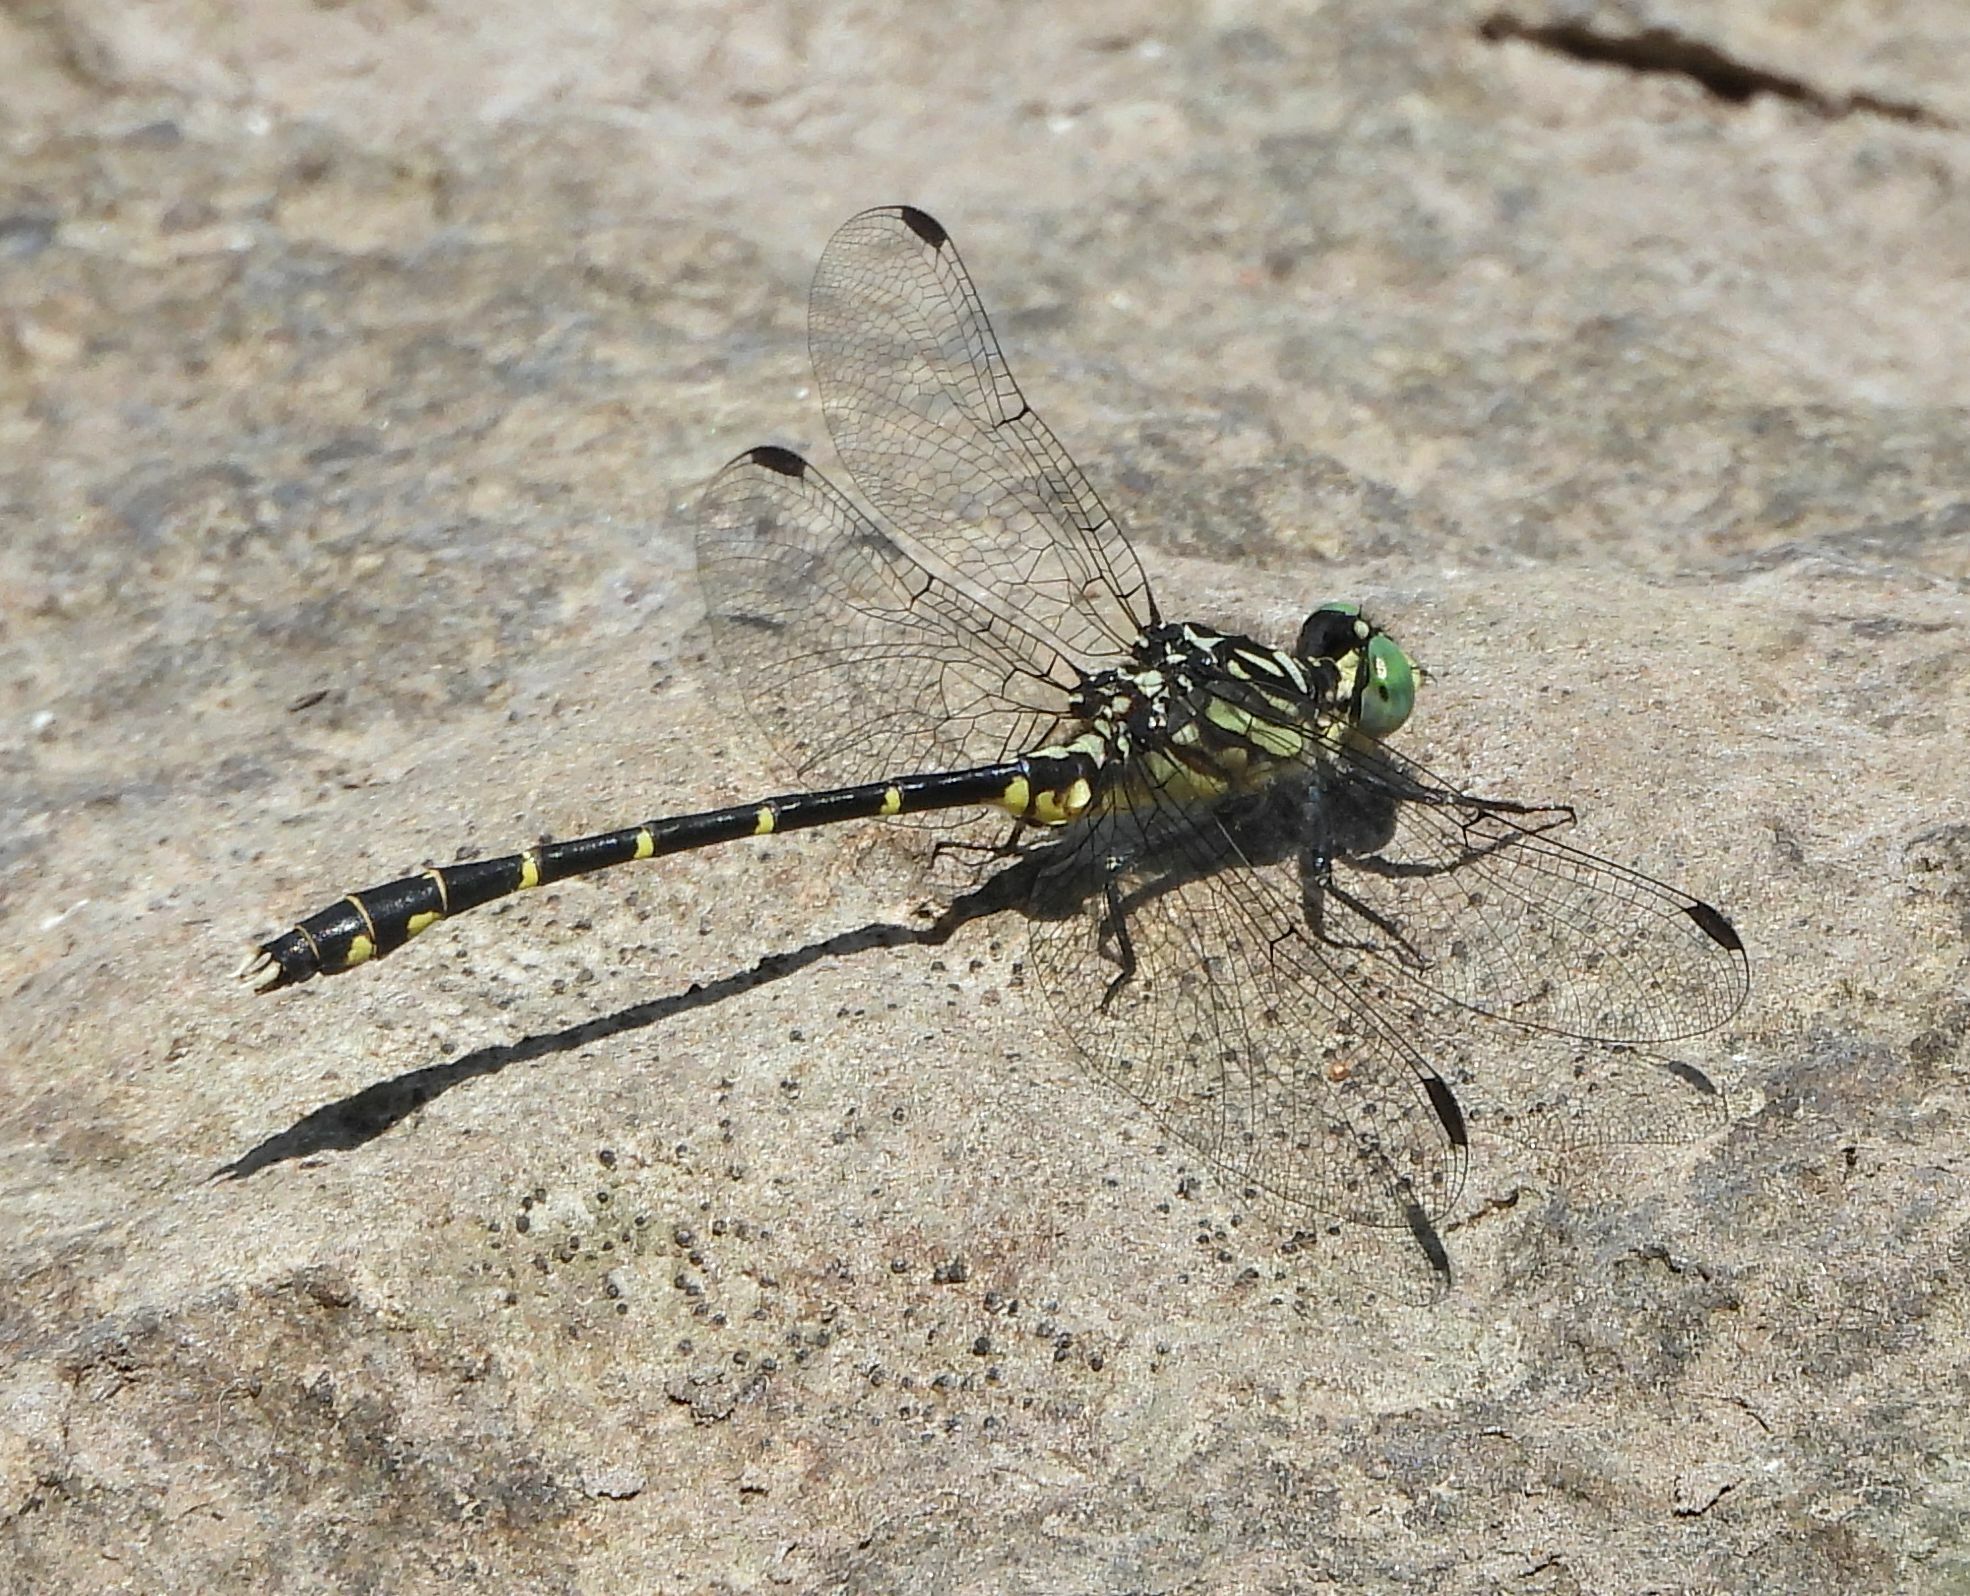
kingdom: Animalia
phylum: Arthropoda
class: Insecta
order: Odonata
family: Gomphidae
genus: Stylogomphus
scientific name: Stylogomphus albistylus
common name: Eastern least clubtail
